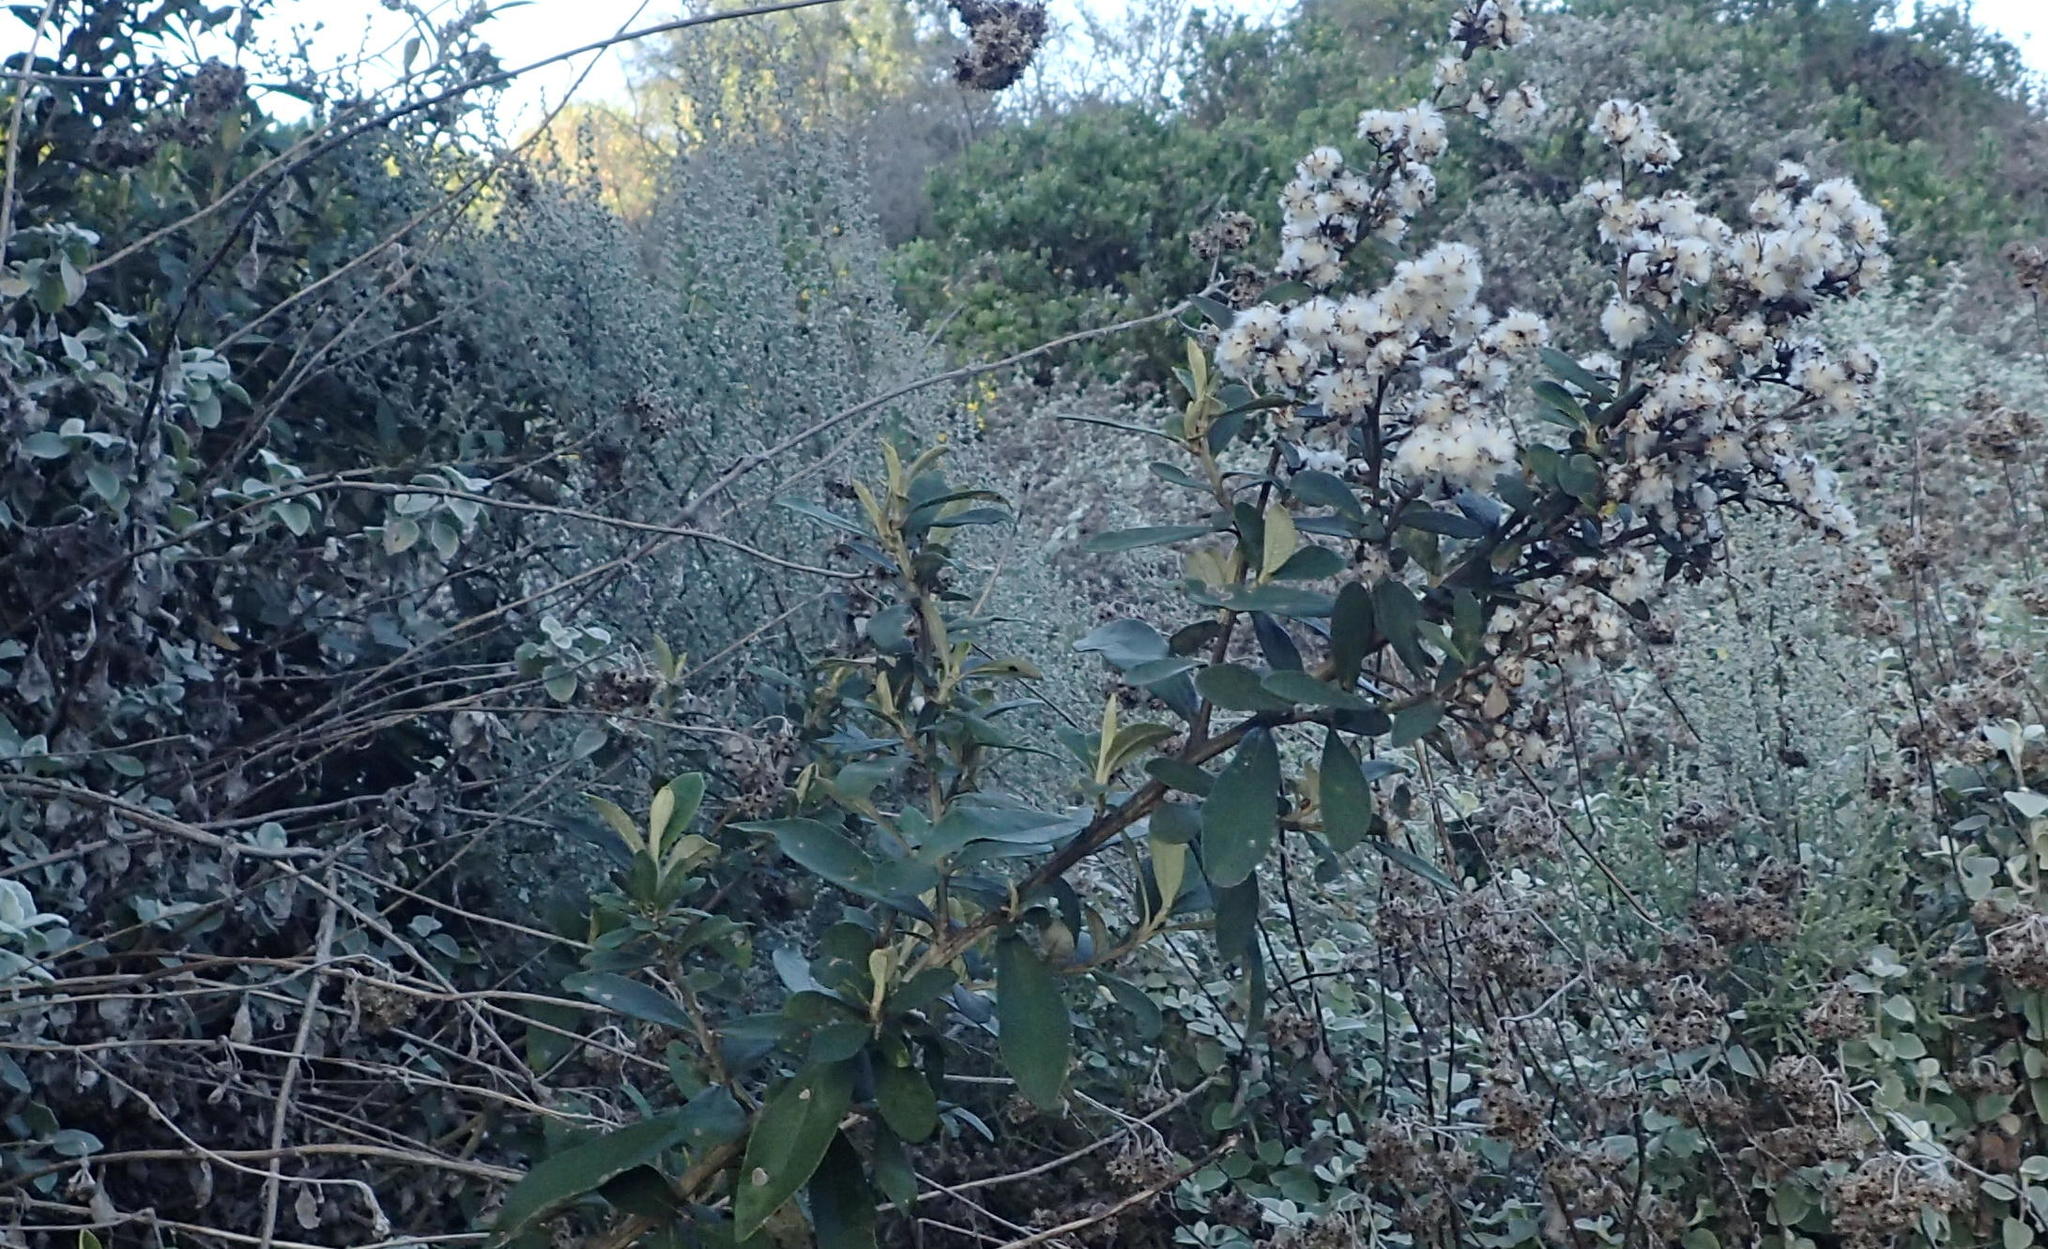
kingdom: Plantae
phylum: Tracheophyta
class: Magnoliopsida
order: Asterales
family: Asteraceae
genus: Tarchonanthus
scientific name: Tarchonanthus littoralis
